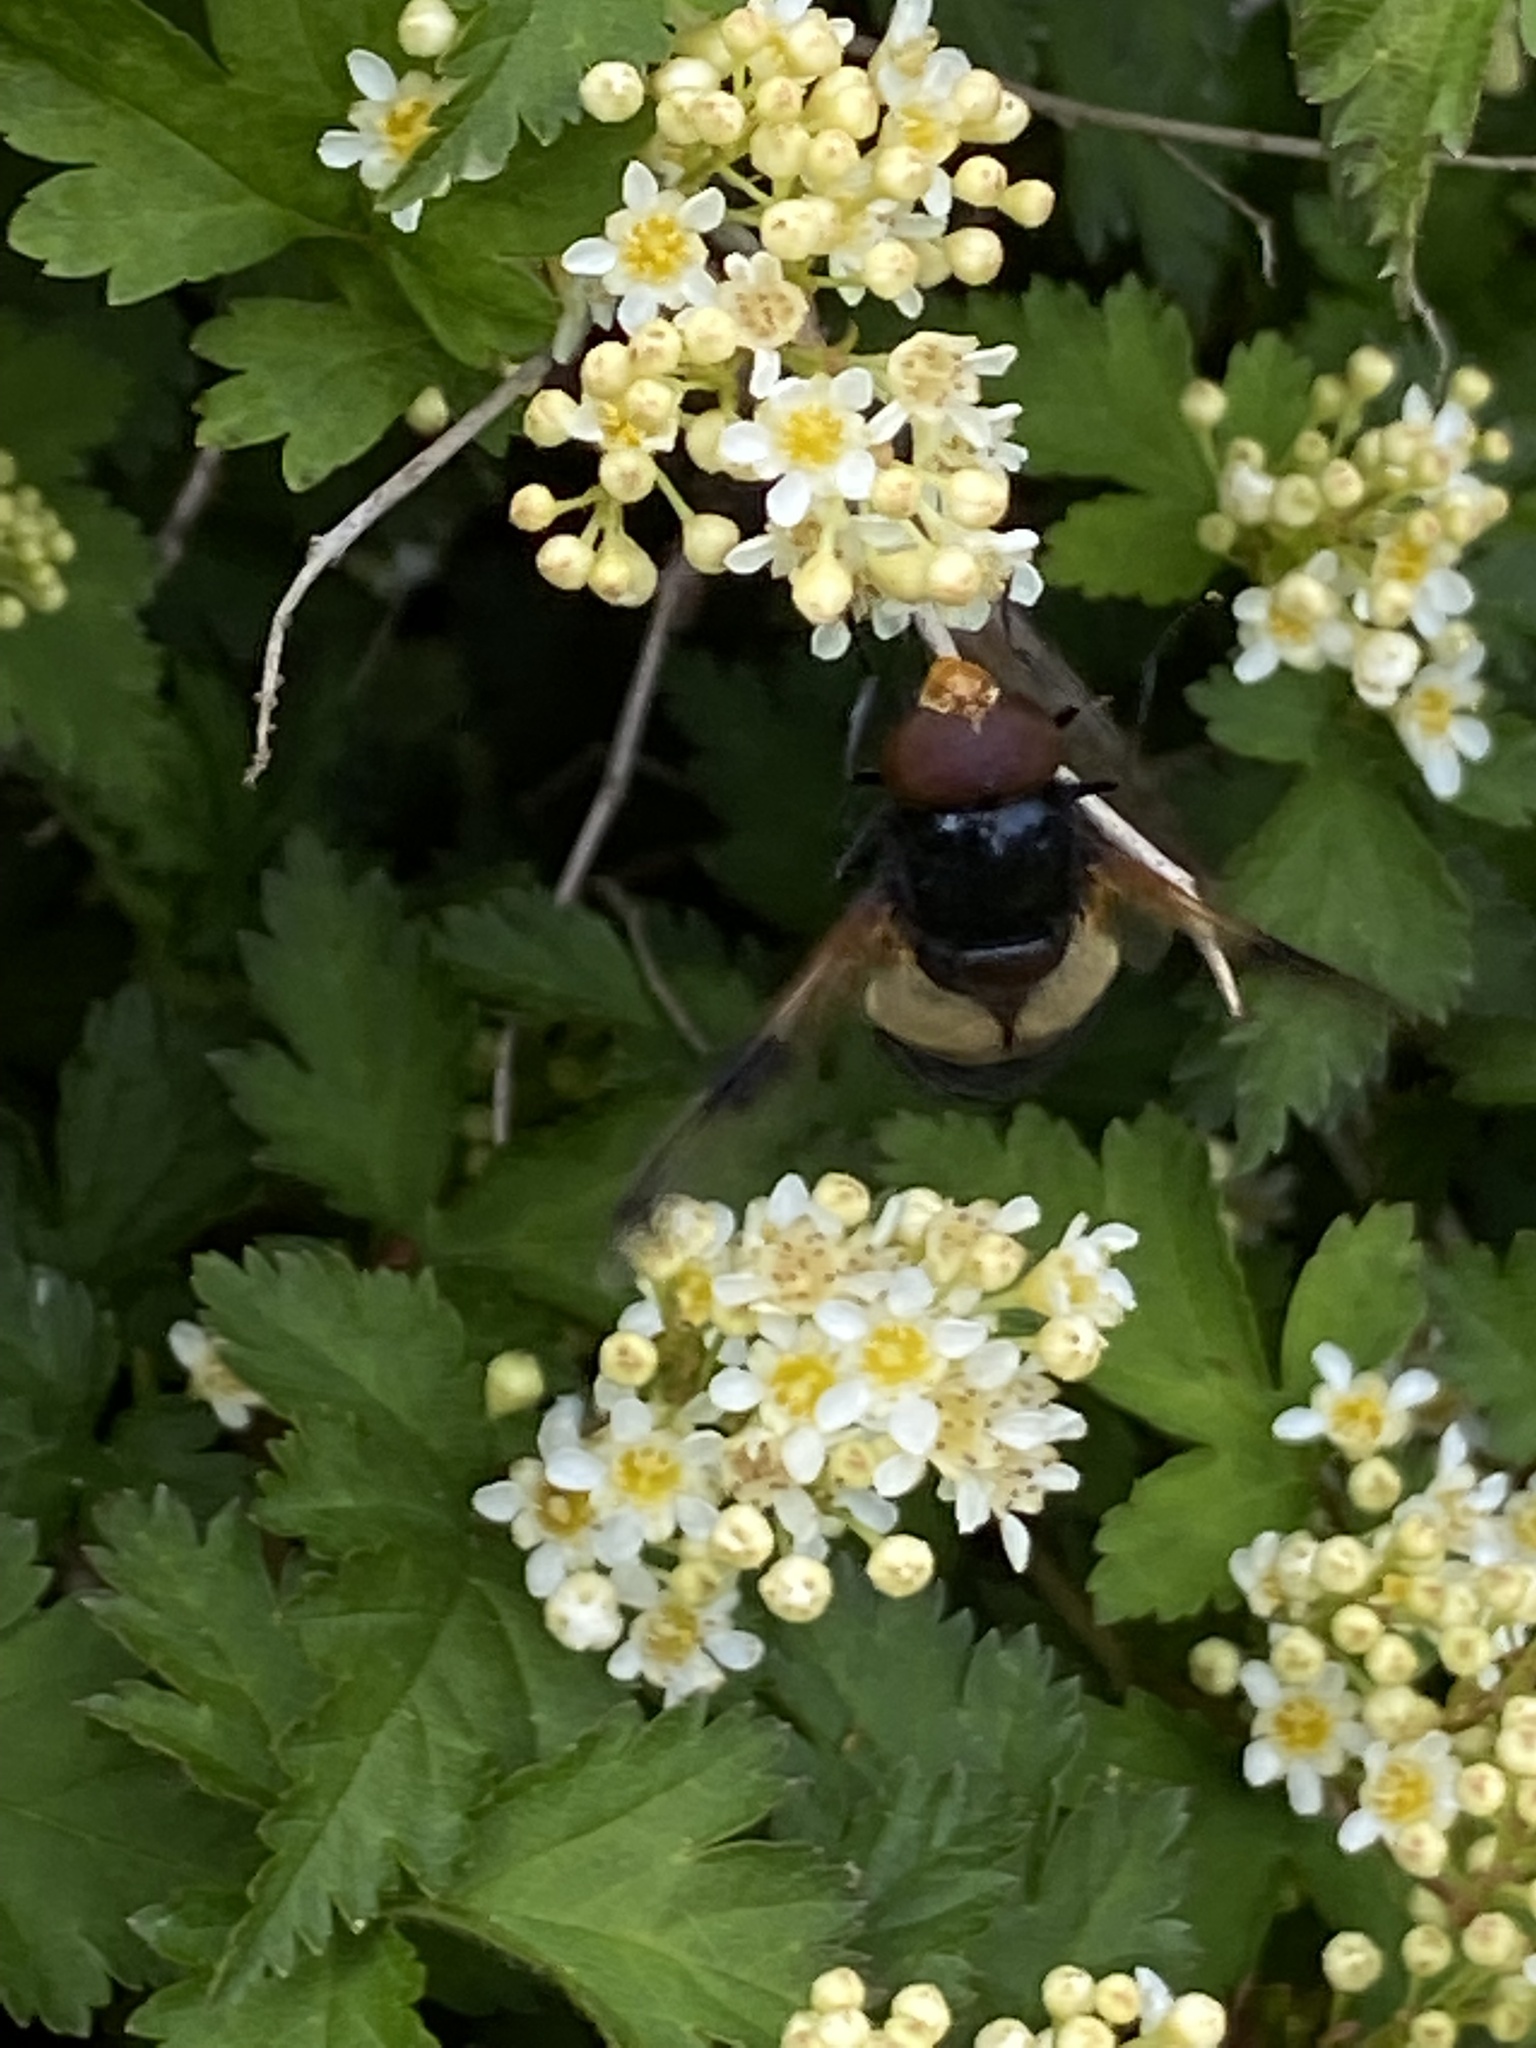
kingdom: Animalia
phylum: Arthropoda
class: Insecta
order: Diptera
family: Syrphidae
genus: Volucella
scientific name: Volucella pellucens
